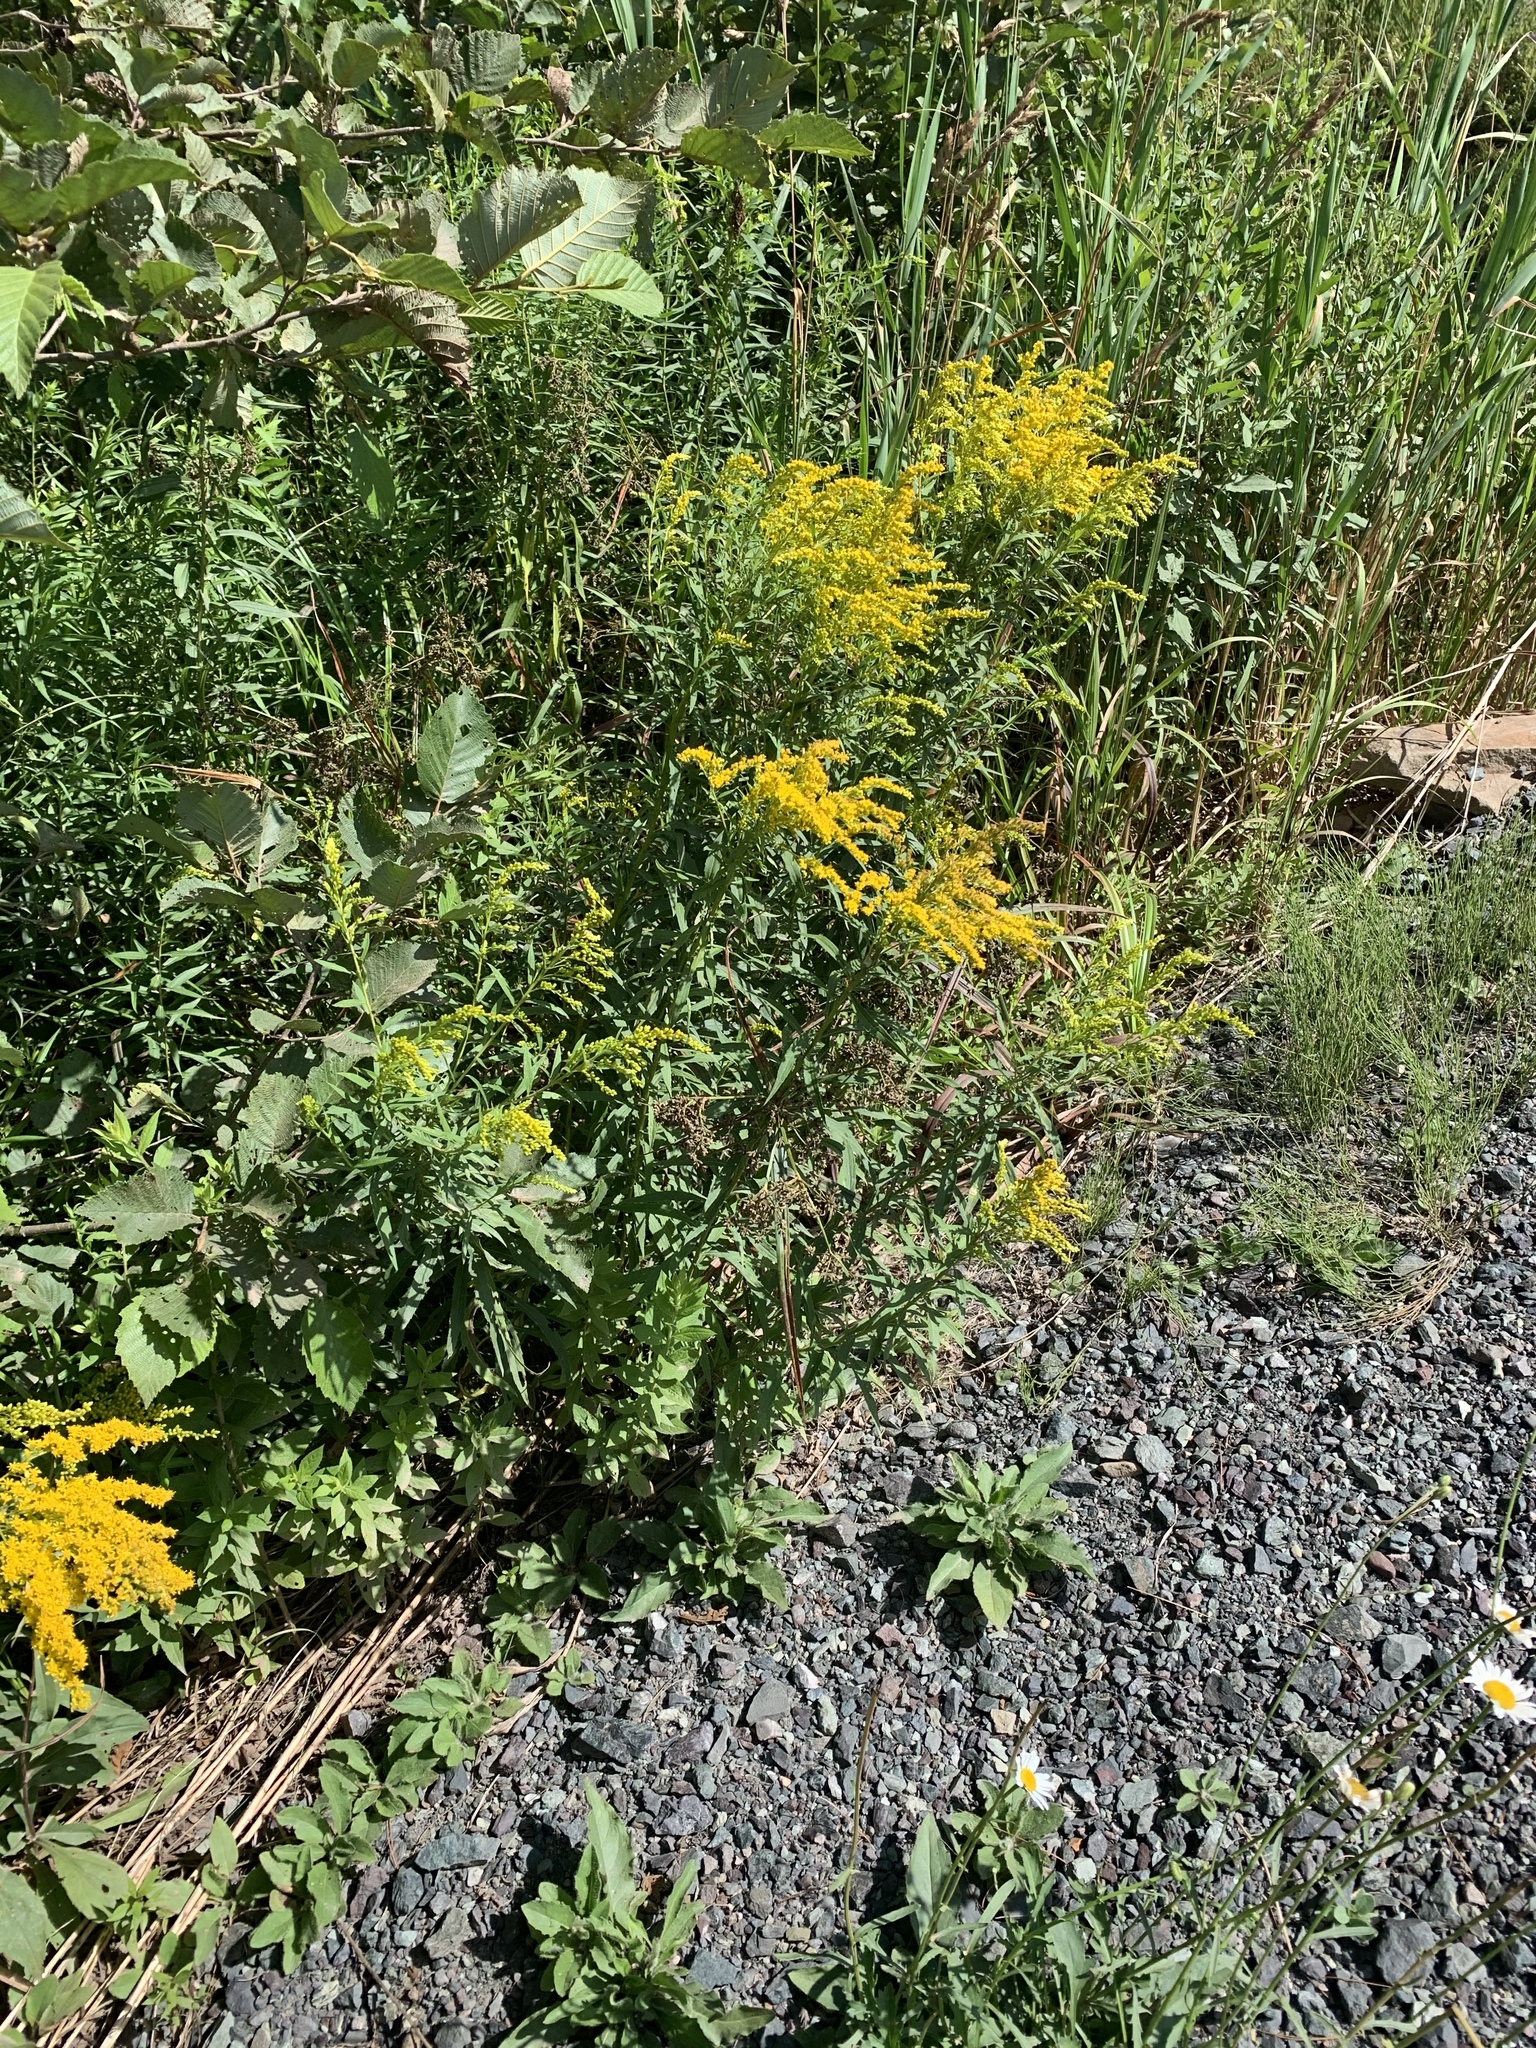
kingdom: Plantae
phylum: Tracheophyta
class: Magnoliopsida
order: Asterales
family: Asteraceae
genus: Solidago
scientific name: Solidago canadensis
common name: Canada goldenrod
